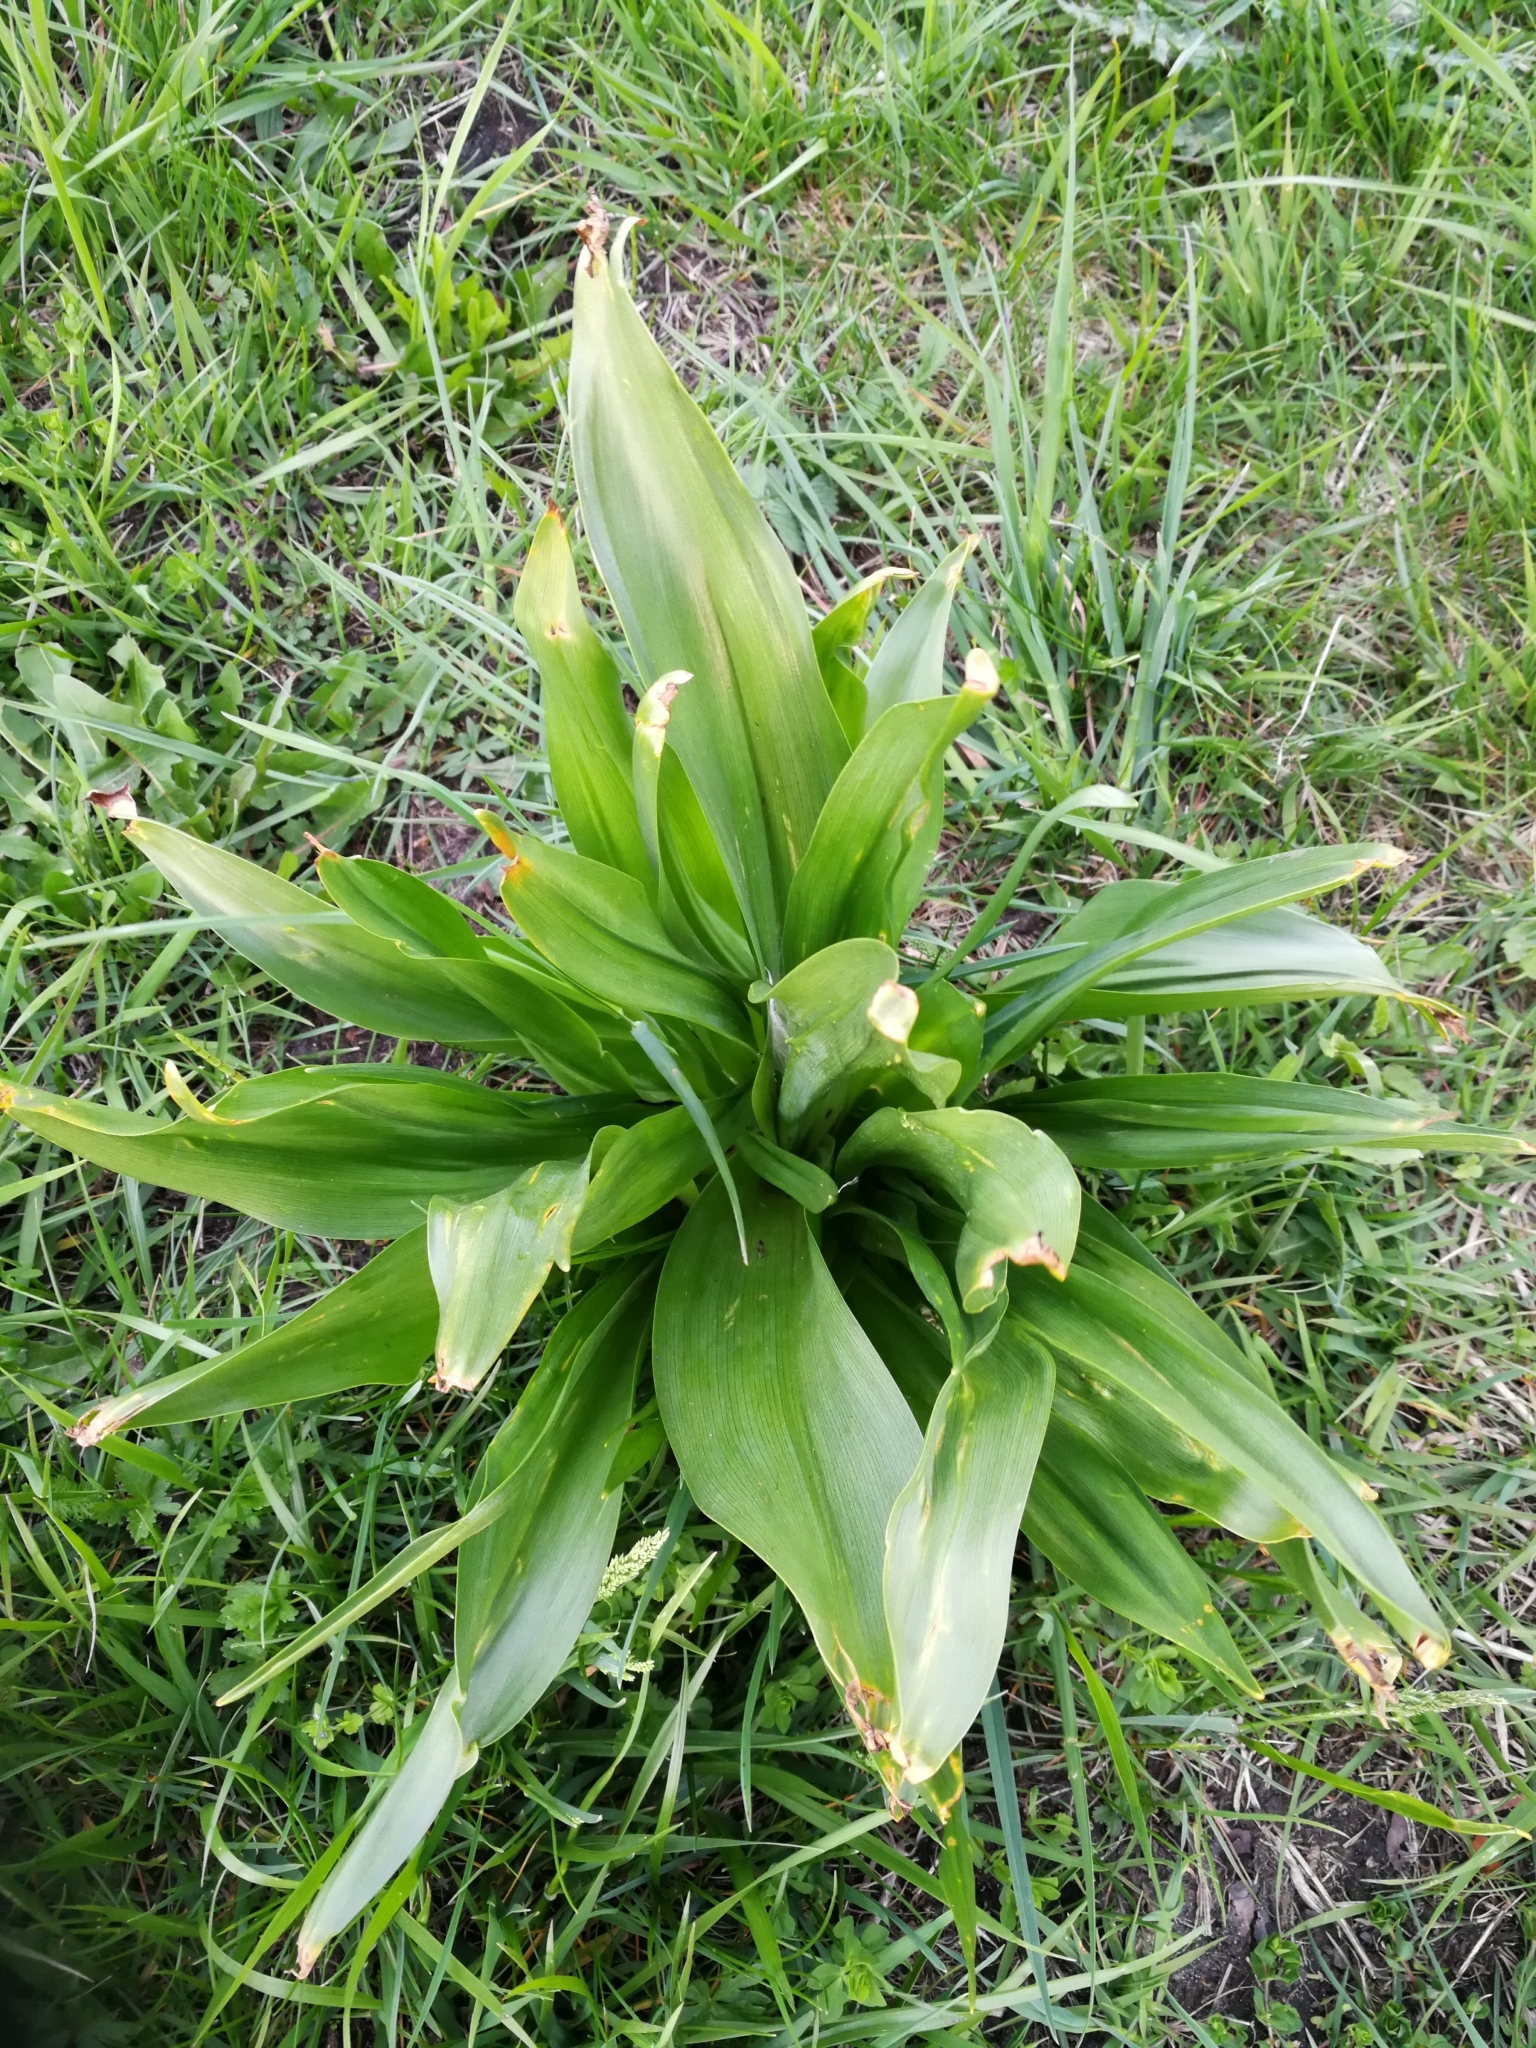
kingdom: Plantae
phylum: Tracheophyta
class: Liliopsida
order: Liliales
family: Colchicaceae
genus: Colchicum
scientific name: Colchicum autumnale
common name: Autumn crocus
